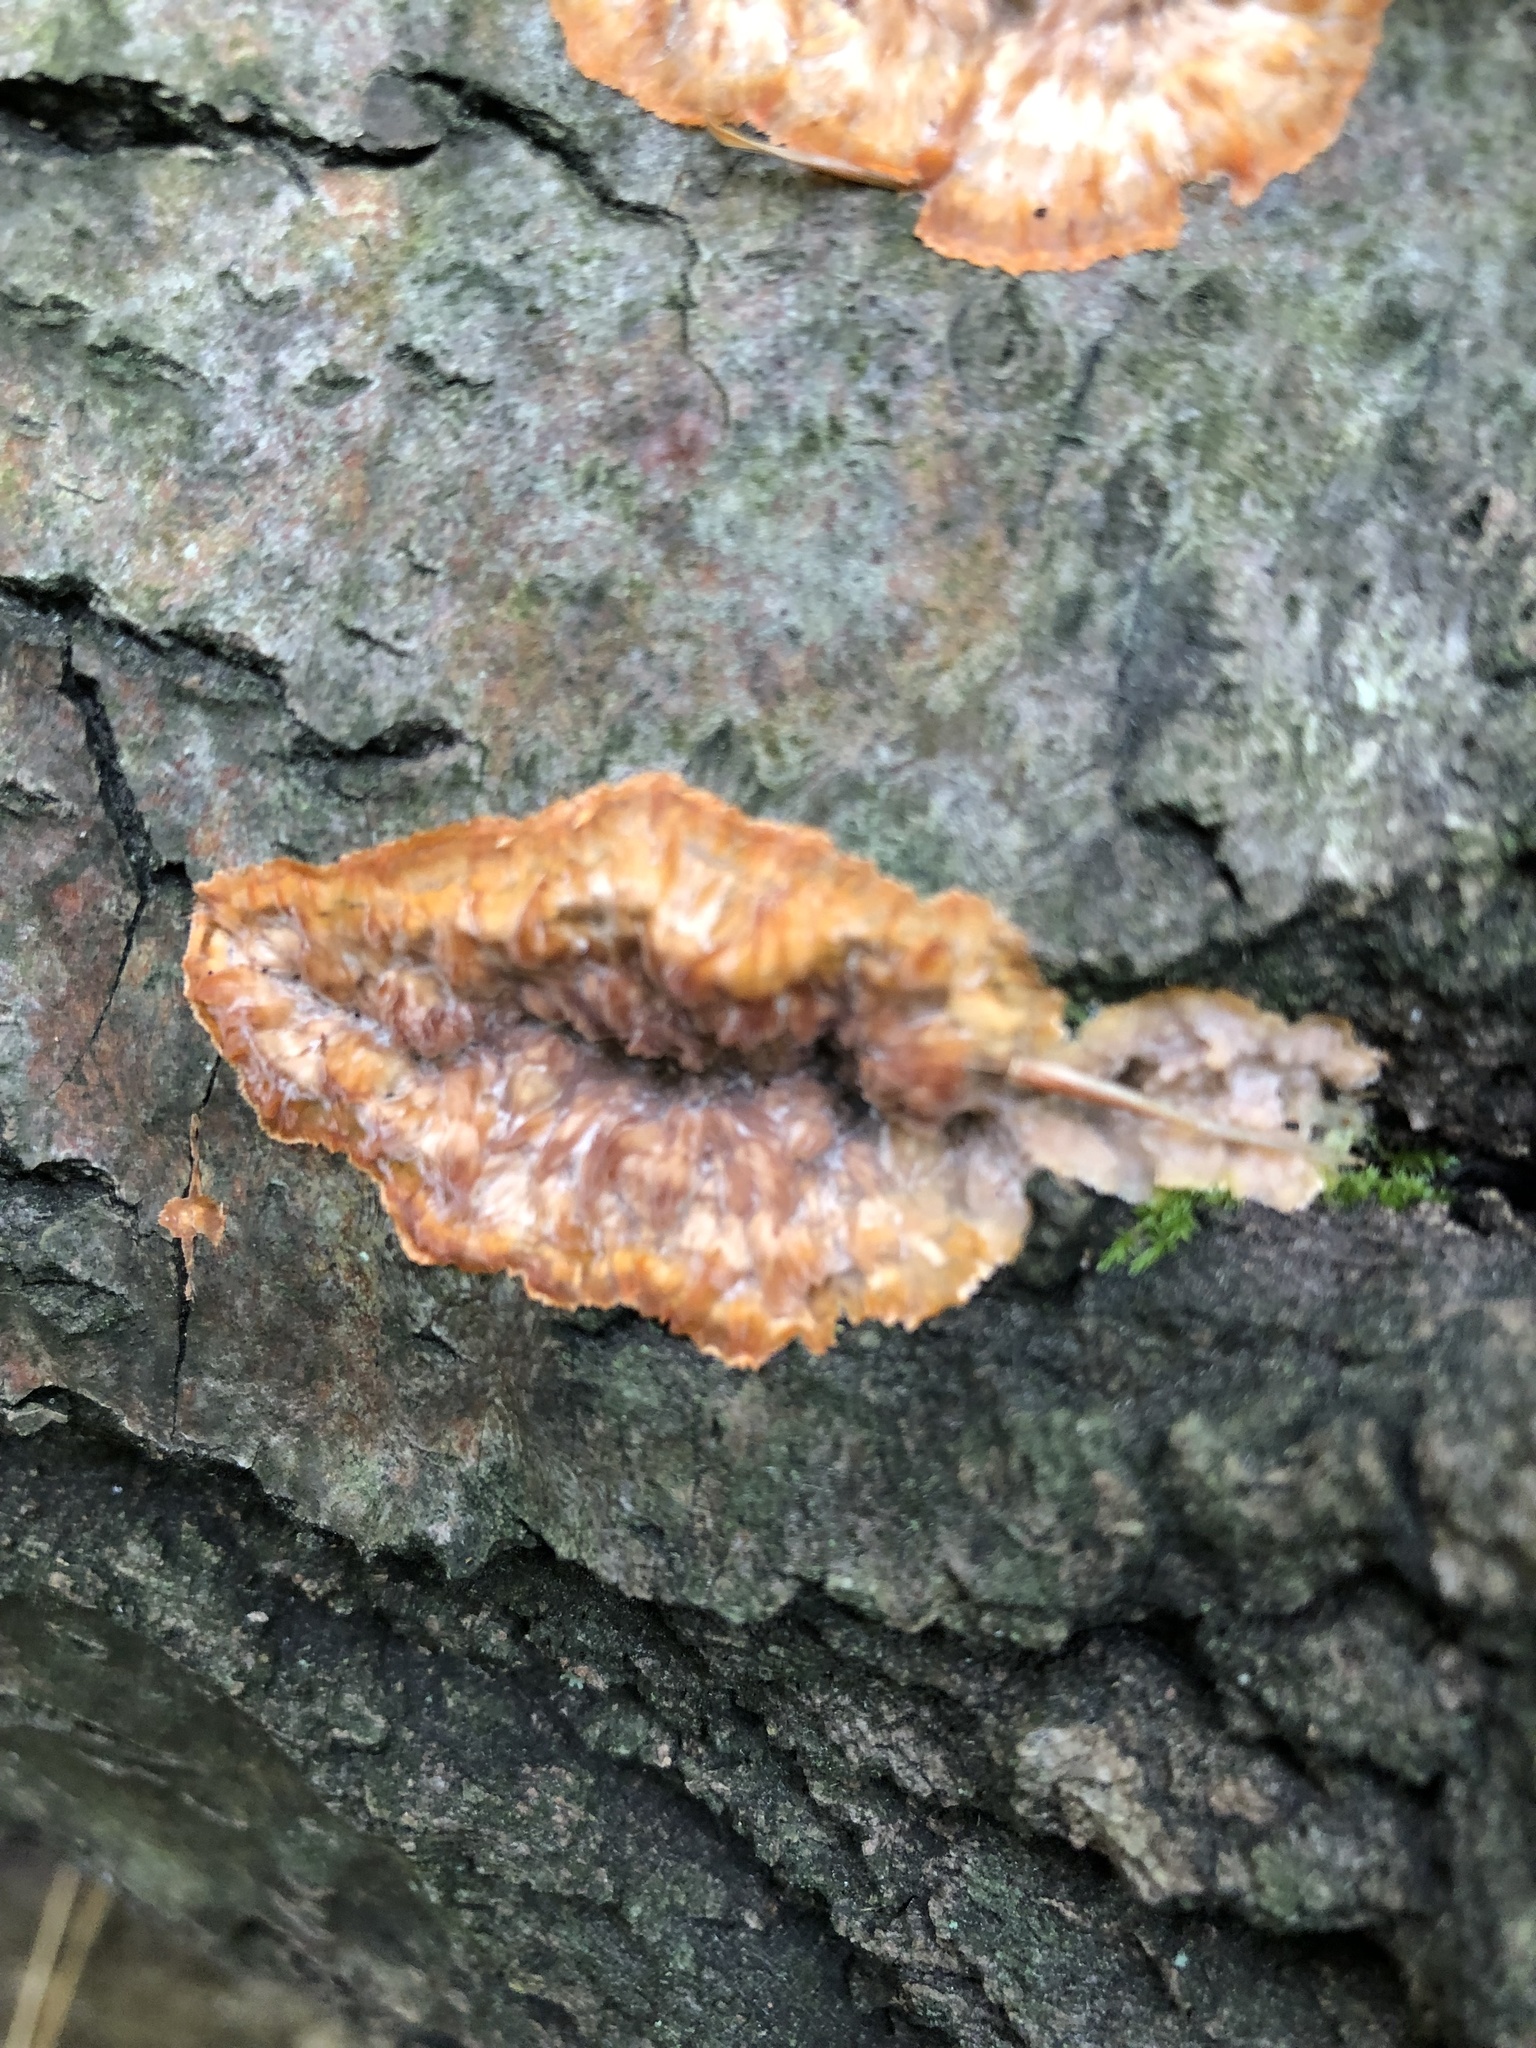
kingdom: Fungi
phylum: Basidiomycota
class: Agaricomycetes
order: Polyporales
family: Meruliaceae
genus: Phlebia
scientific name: Phlebia radiata
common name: Wrinkled crust
